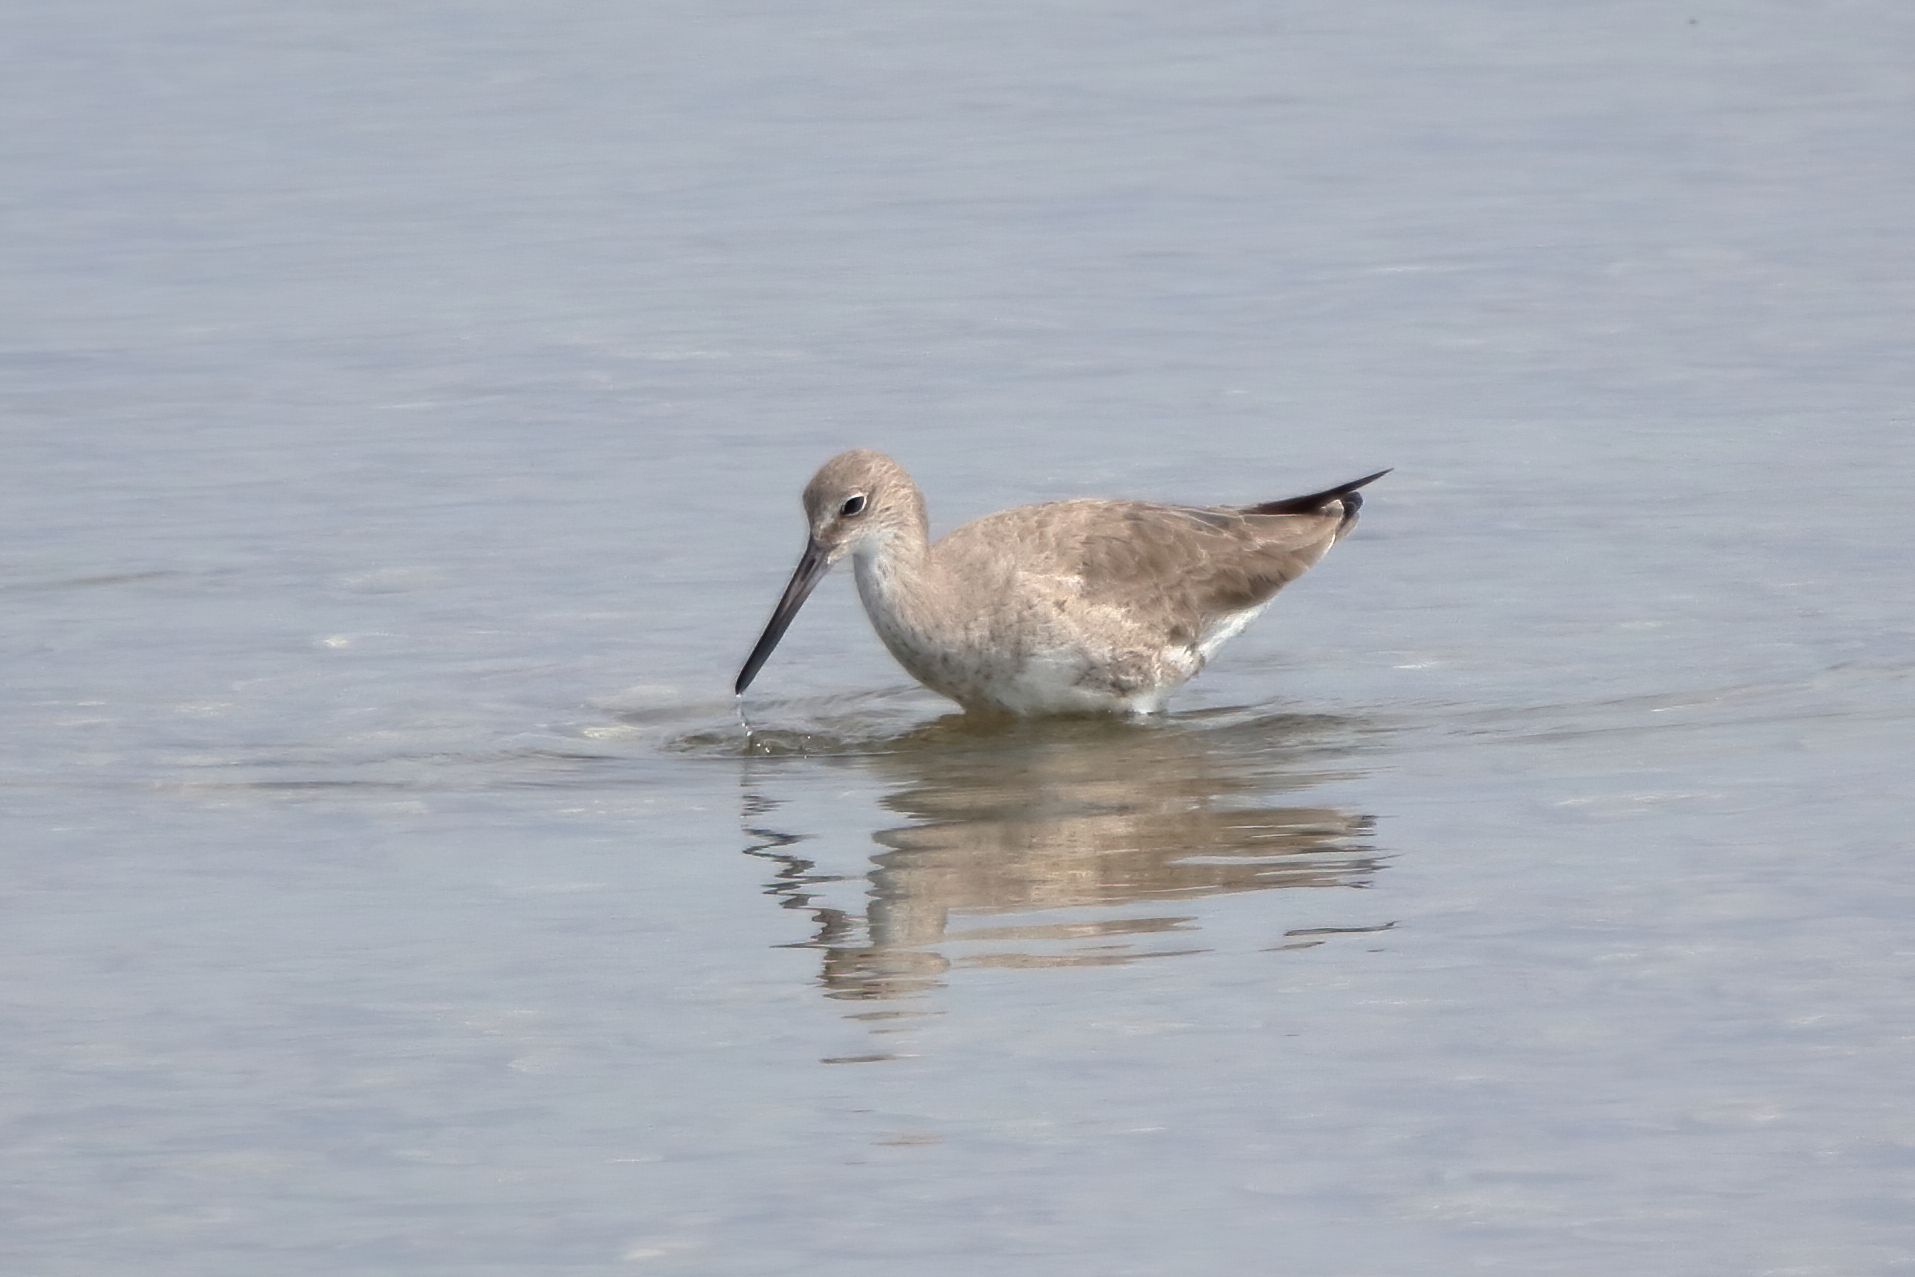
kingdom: Animalia
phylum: Chordata
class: Aves
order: Charadriiformes
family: Scolopacidae
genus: Tringa
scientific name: Tringa semipalmata
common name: Willet
